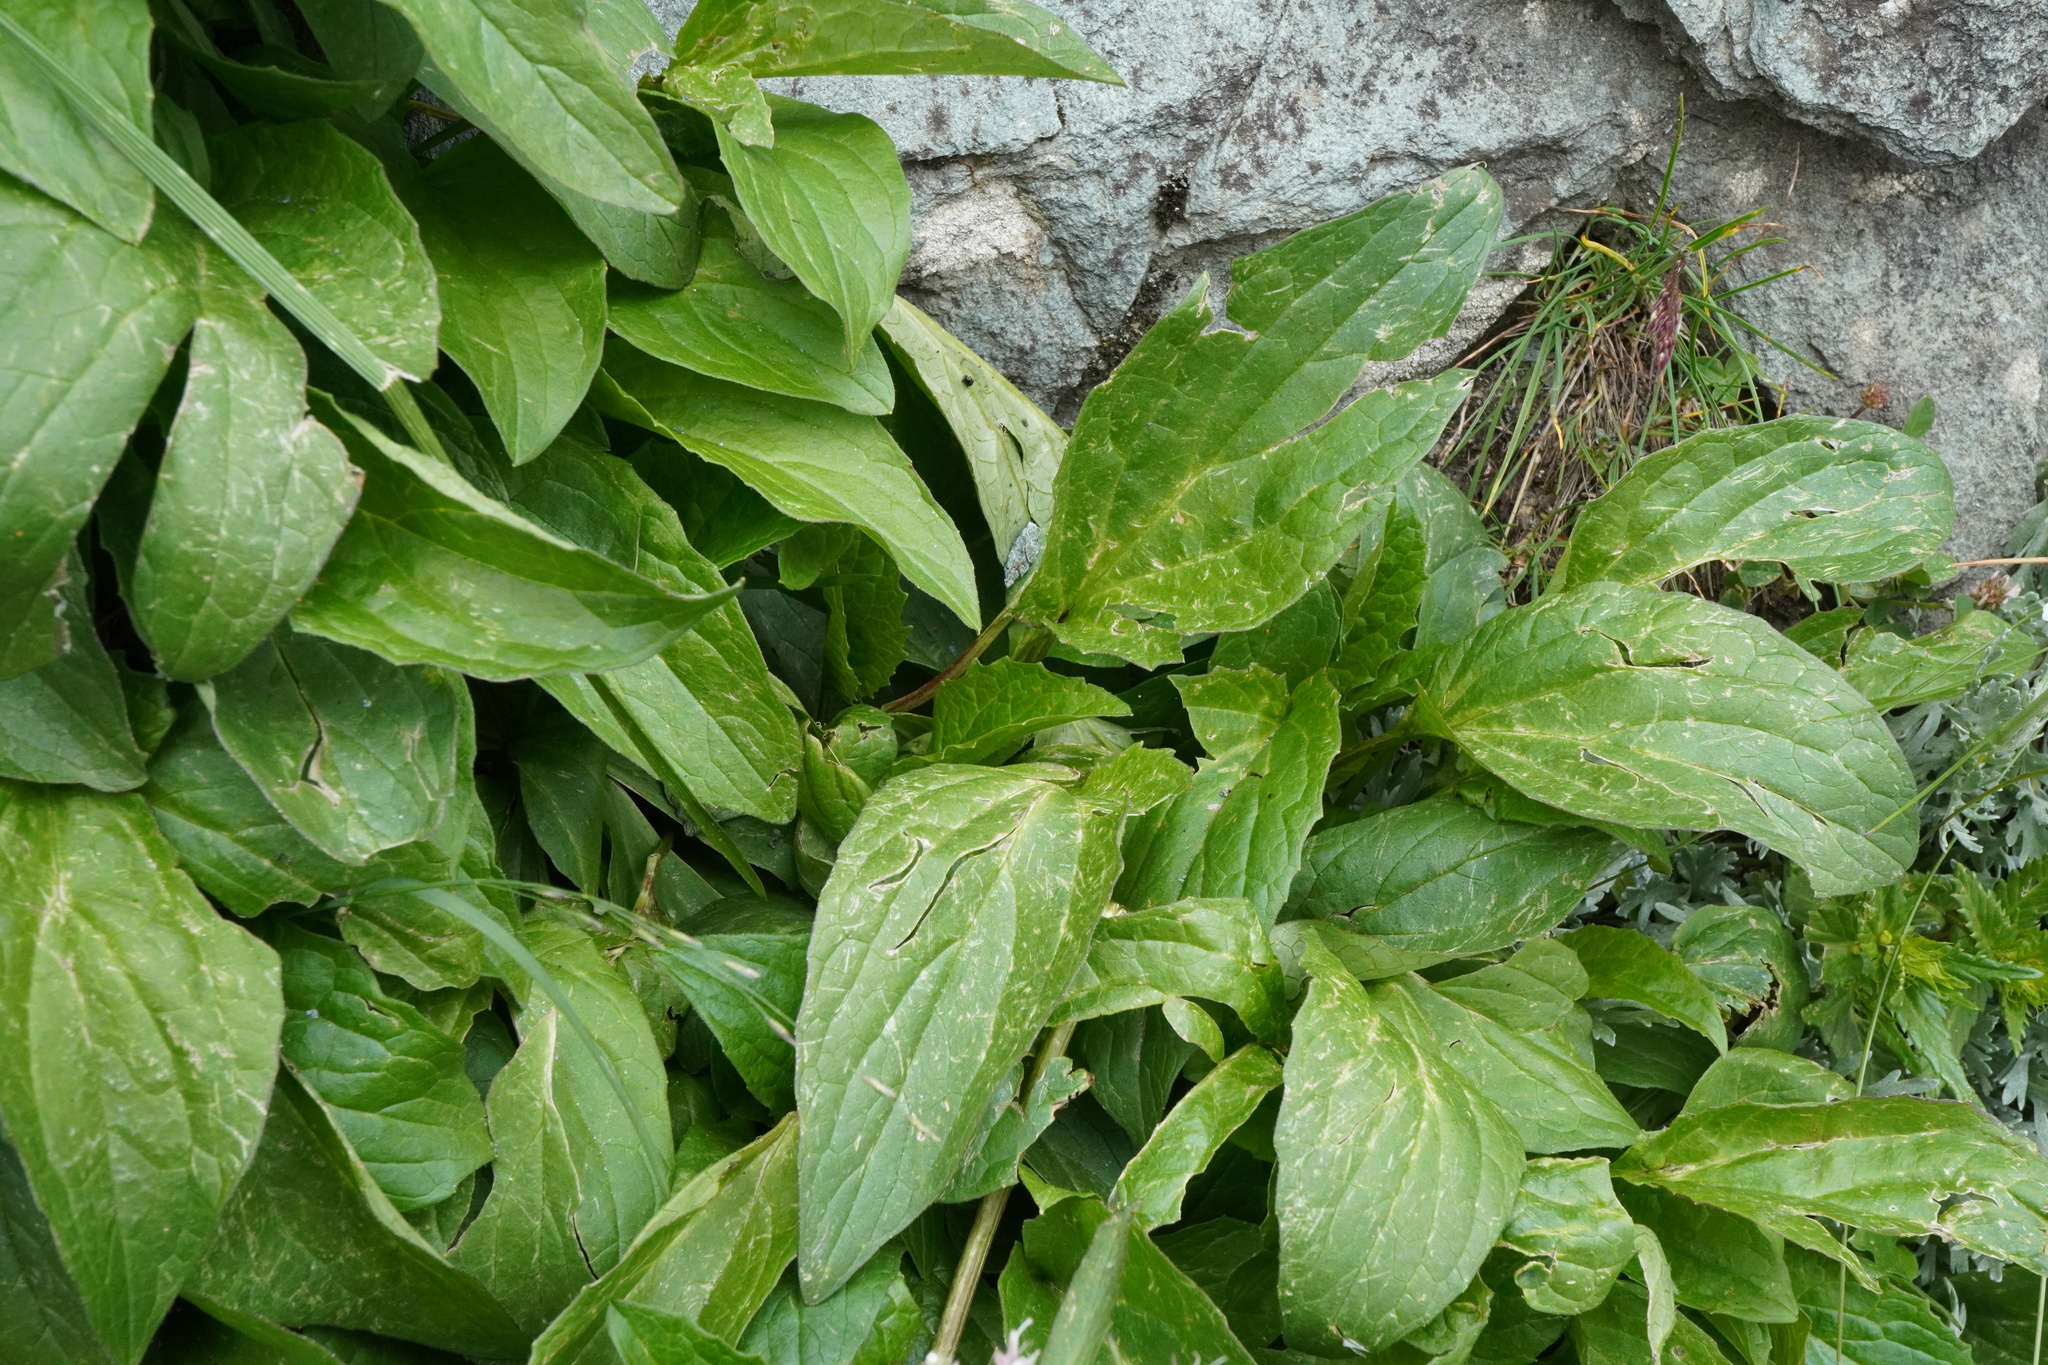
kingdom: Plantae
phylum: Tracheophyta
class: Magnoliopsida
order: Dipsacales
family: Caprifoliaceae
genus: Valeriana
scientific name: Valeriana montana
